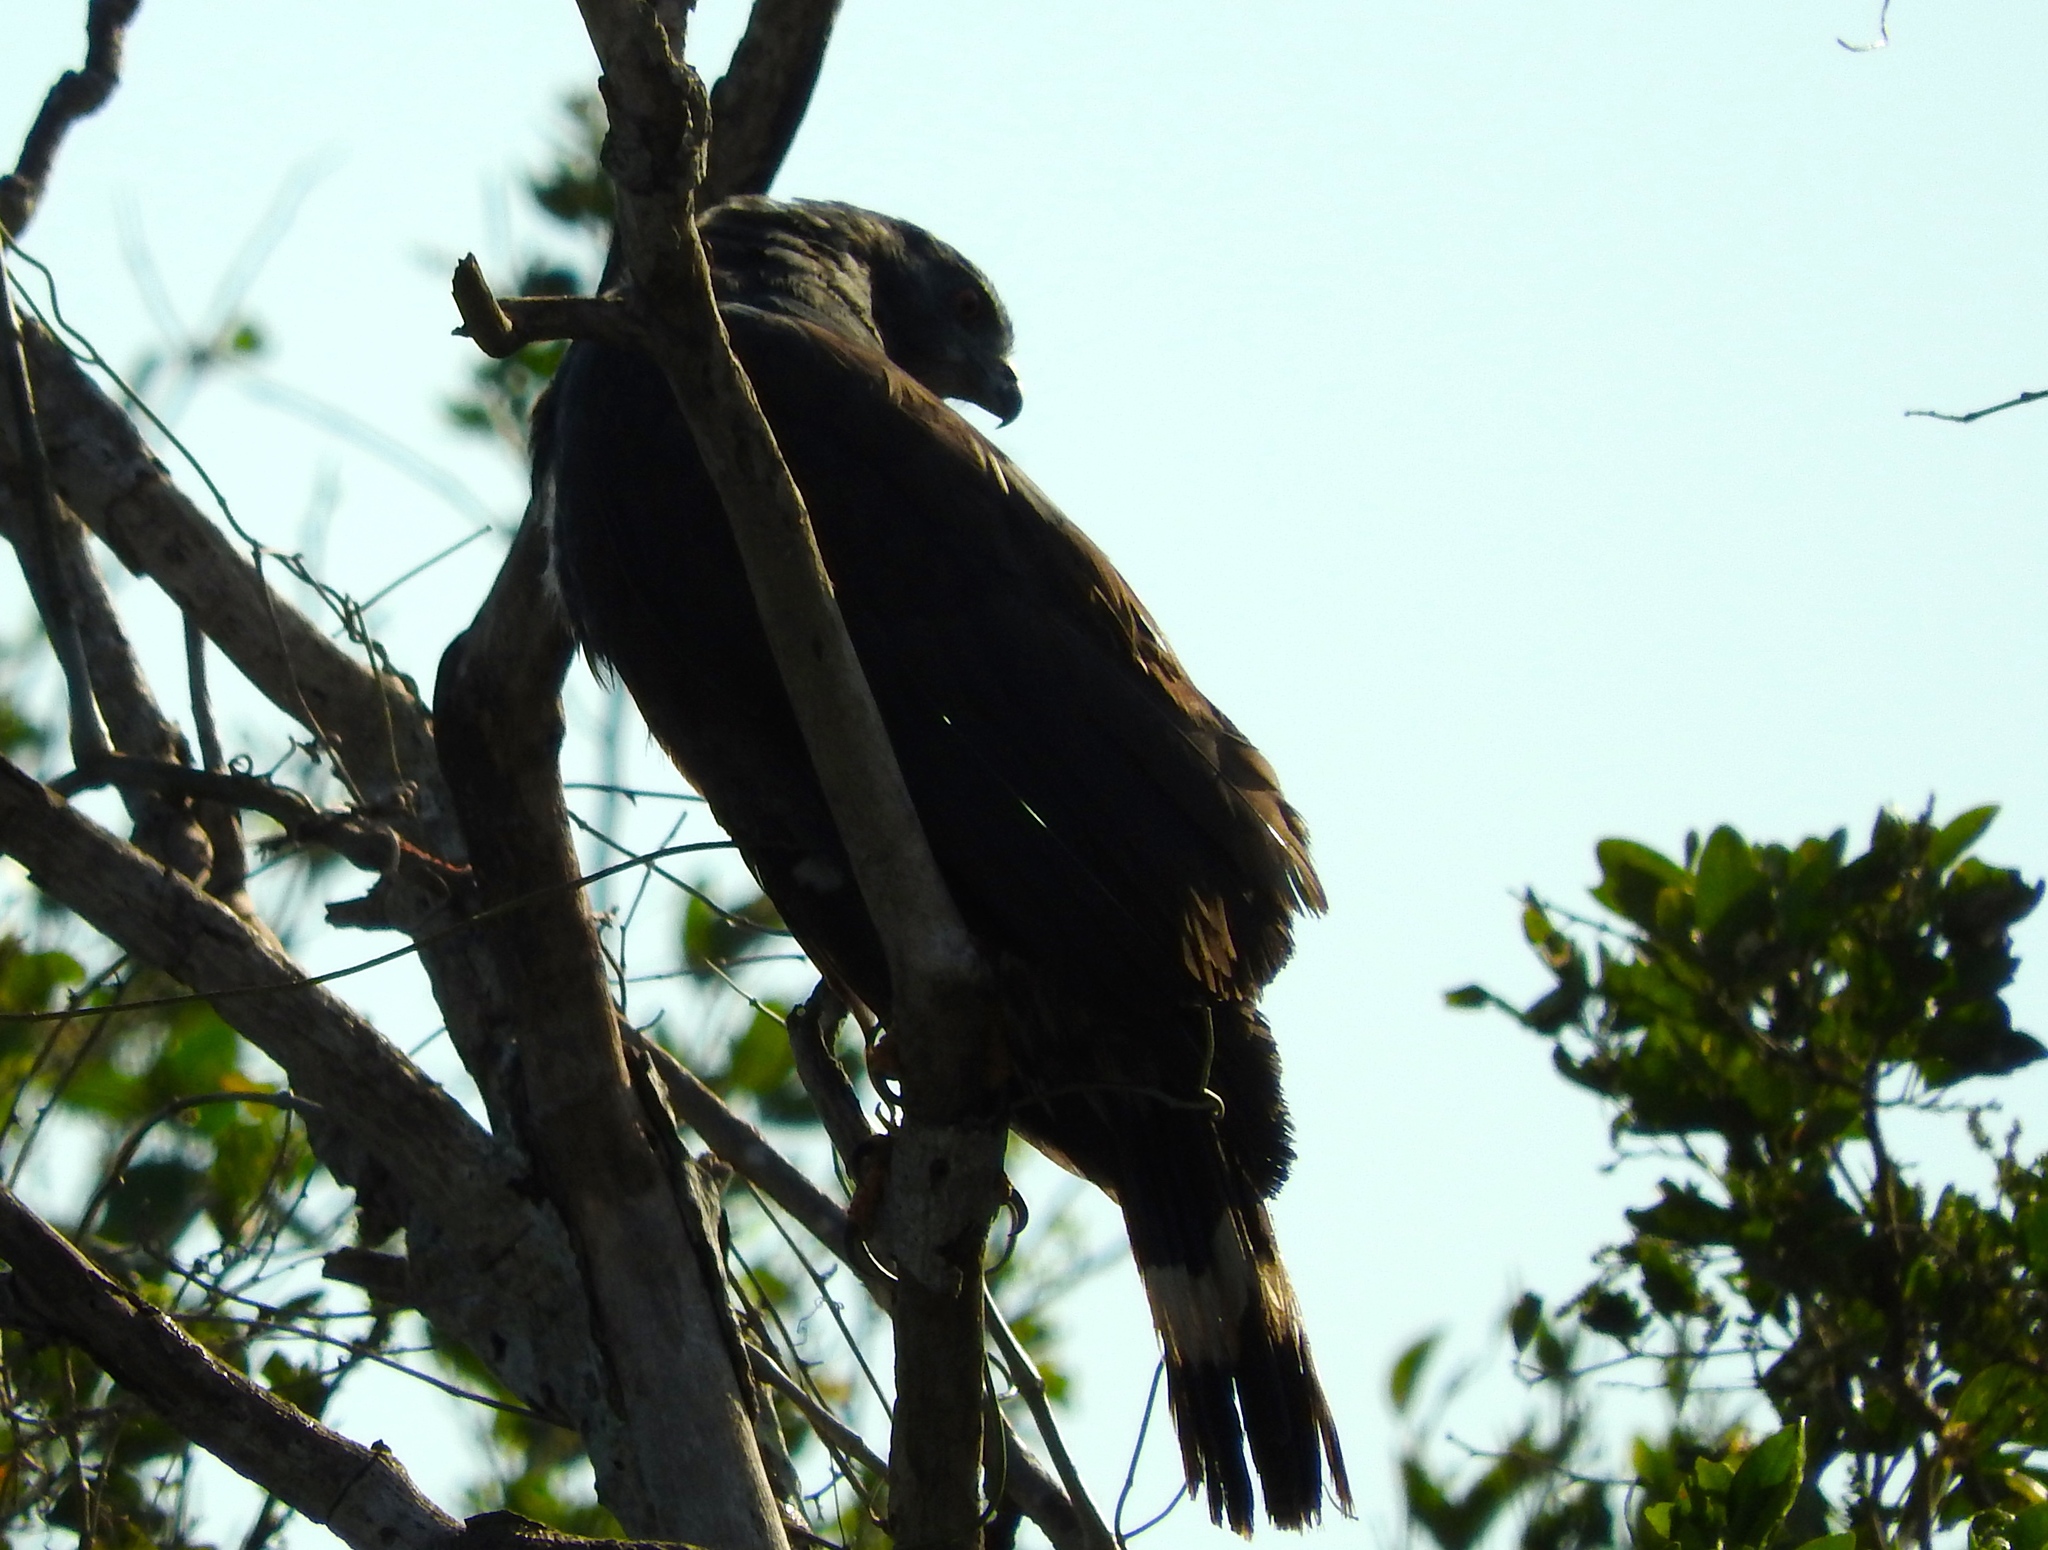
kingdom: Animalia
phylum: Chordata
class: Aves
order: Accipitriformes
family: Accipitridae
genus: Geranospiza
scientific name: Geranospiza caerulescens
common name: Crane hawk
